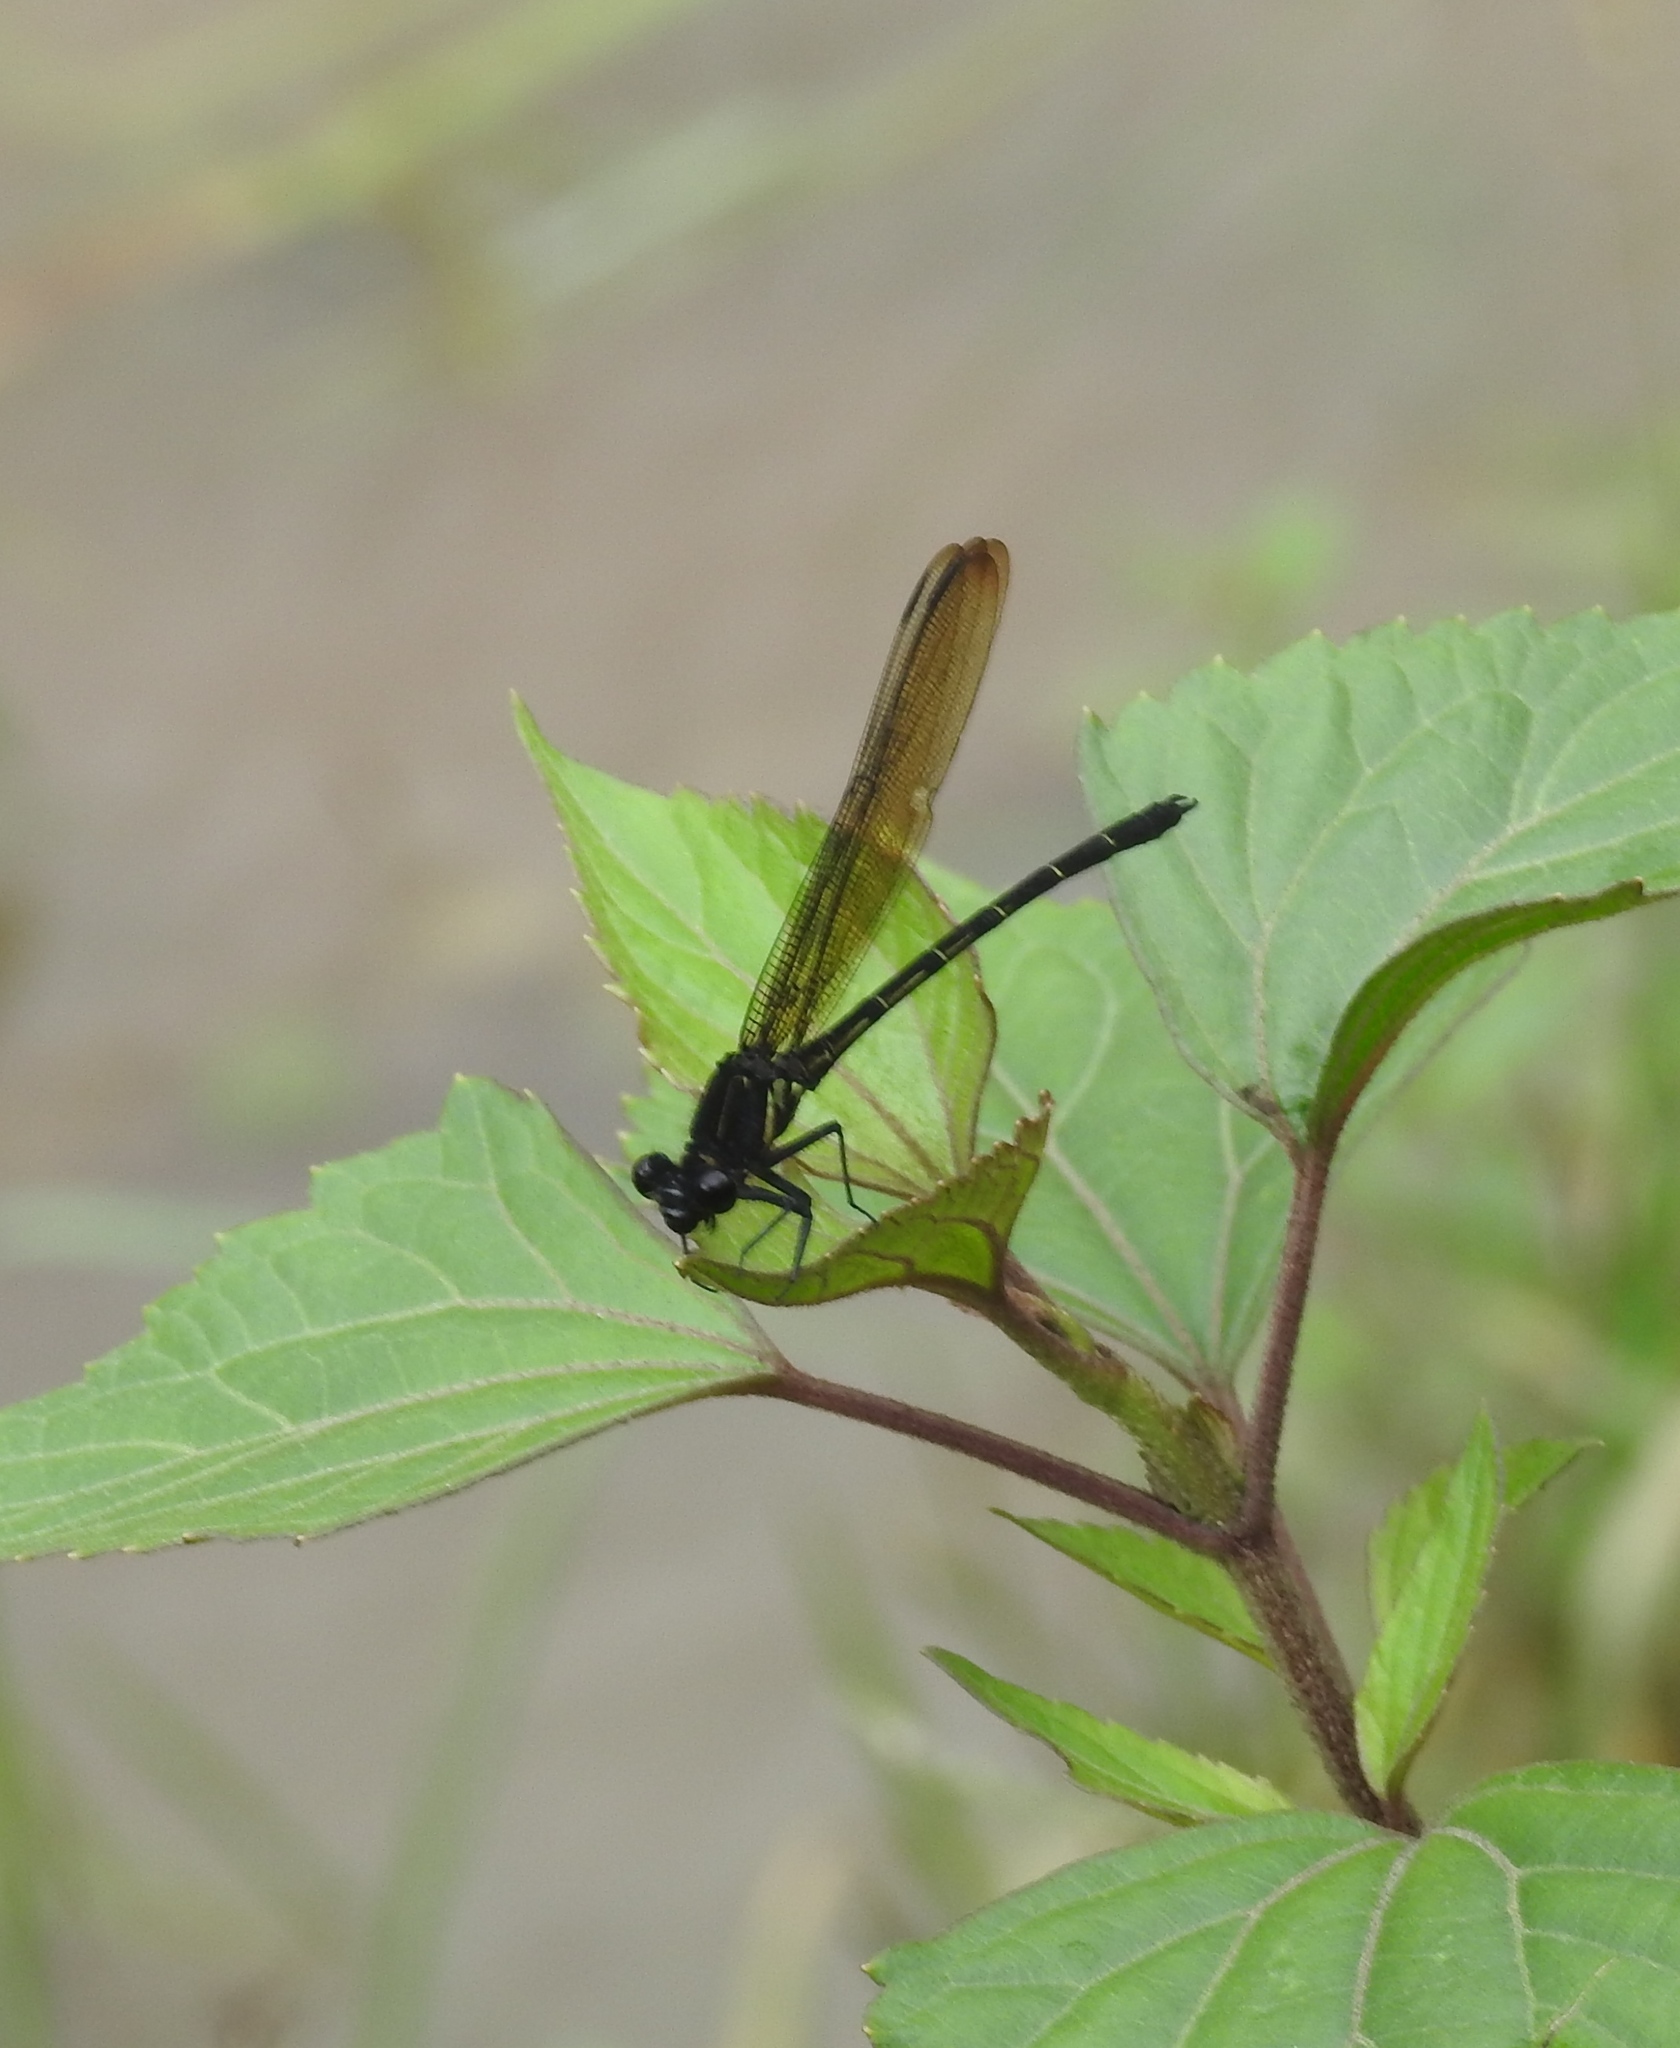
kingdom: Animalia
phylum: Arthropoda
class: Insecta
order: Odonata
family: Euphaeidae
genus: Dysphaea
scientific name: Dysphaea ethela
